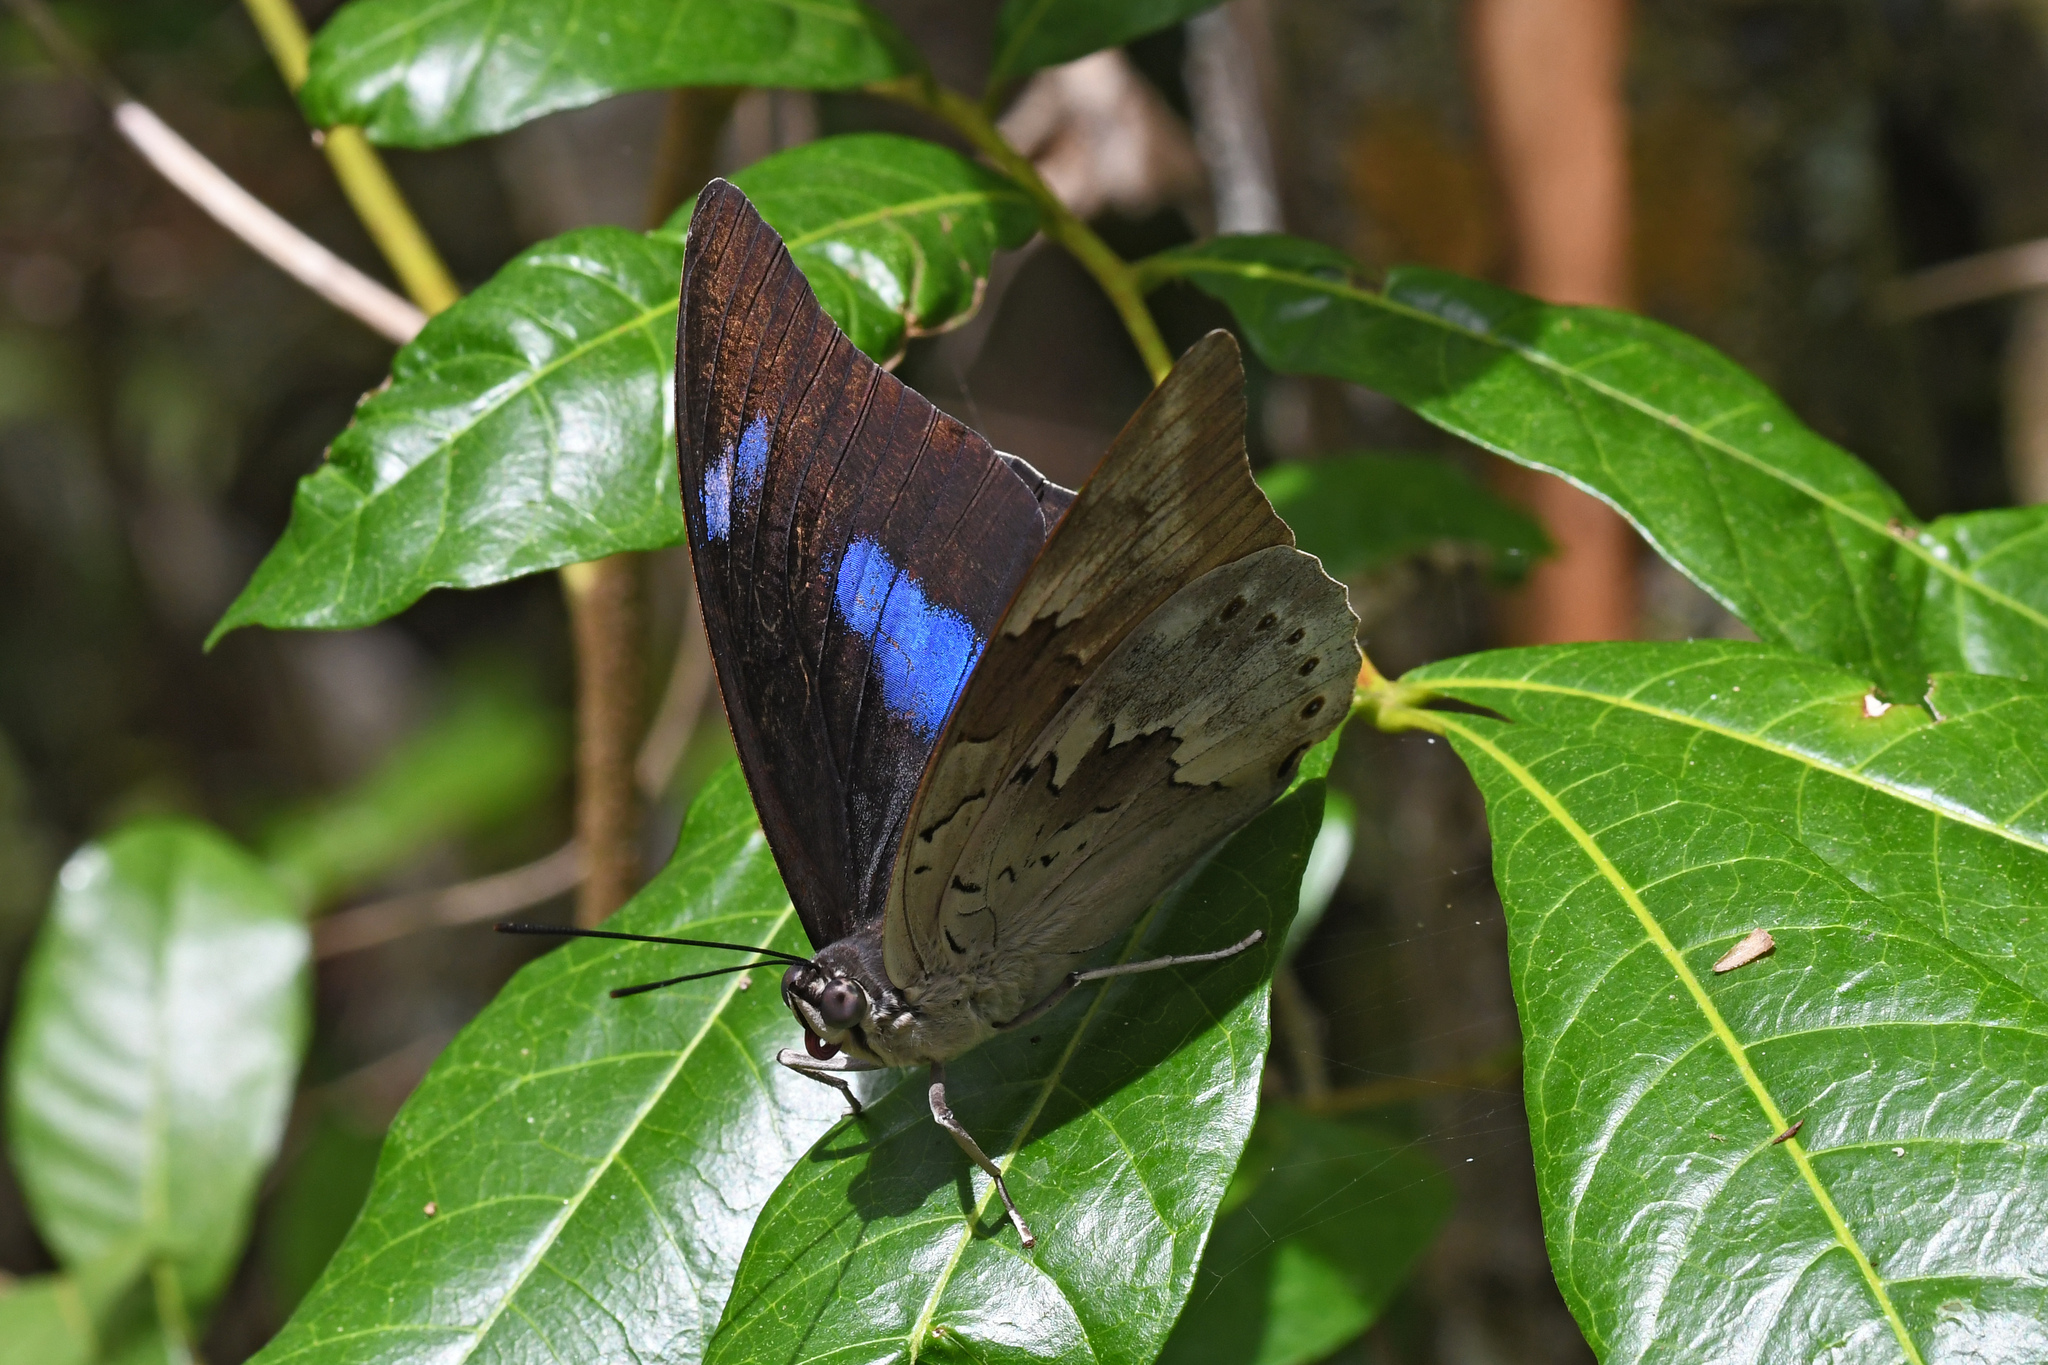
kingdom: Animalia
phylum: Arthropoda
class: Insecta
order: Lepidoptera
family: Nymphalidae
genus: Prepona
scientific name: Prepona demophoon
